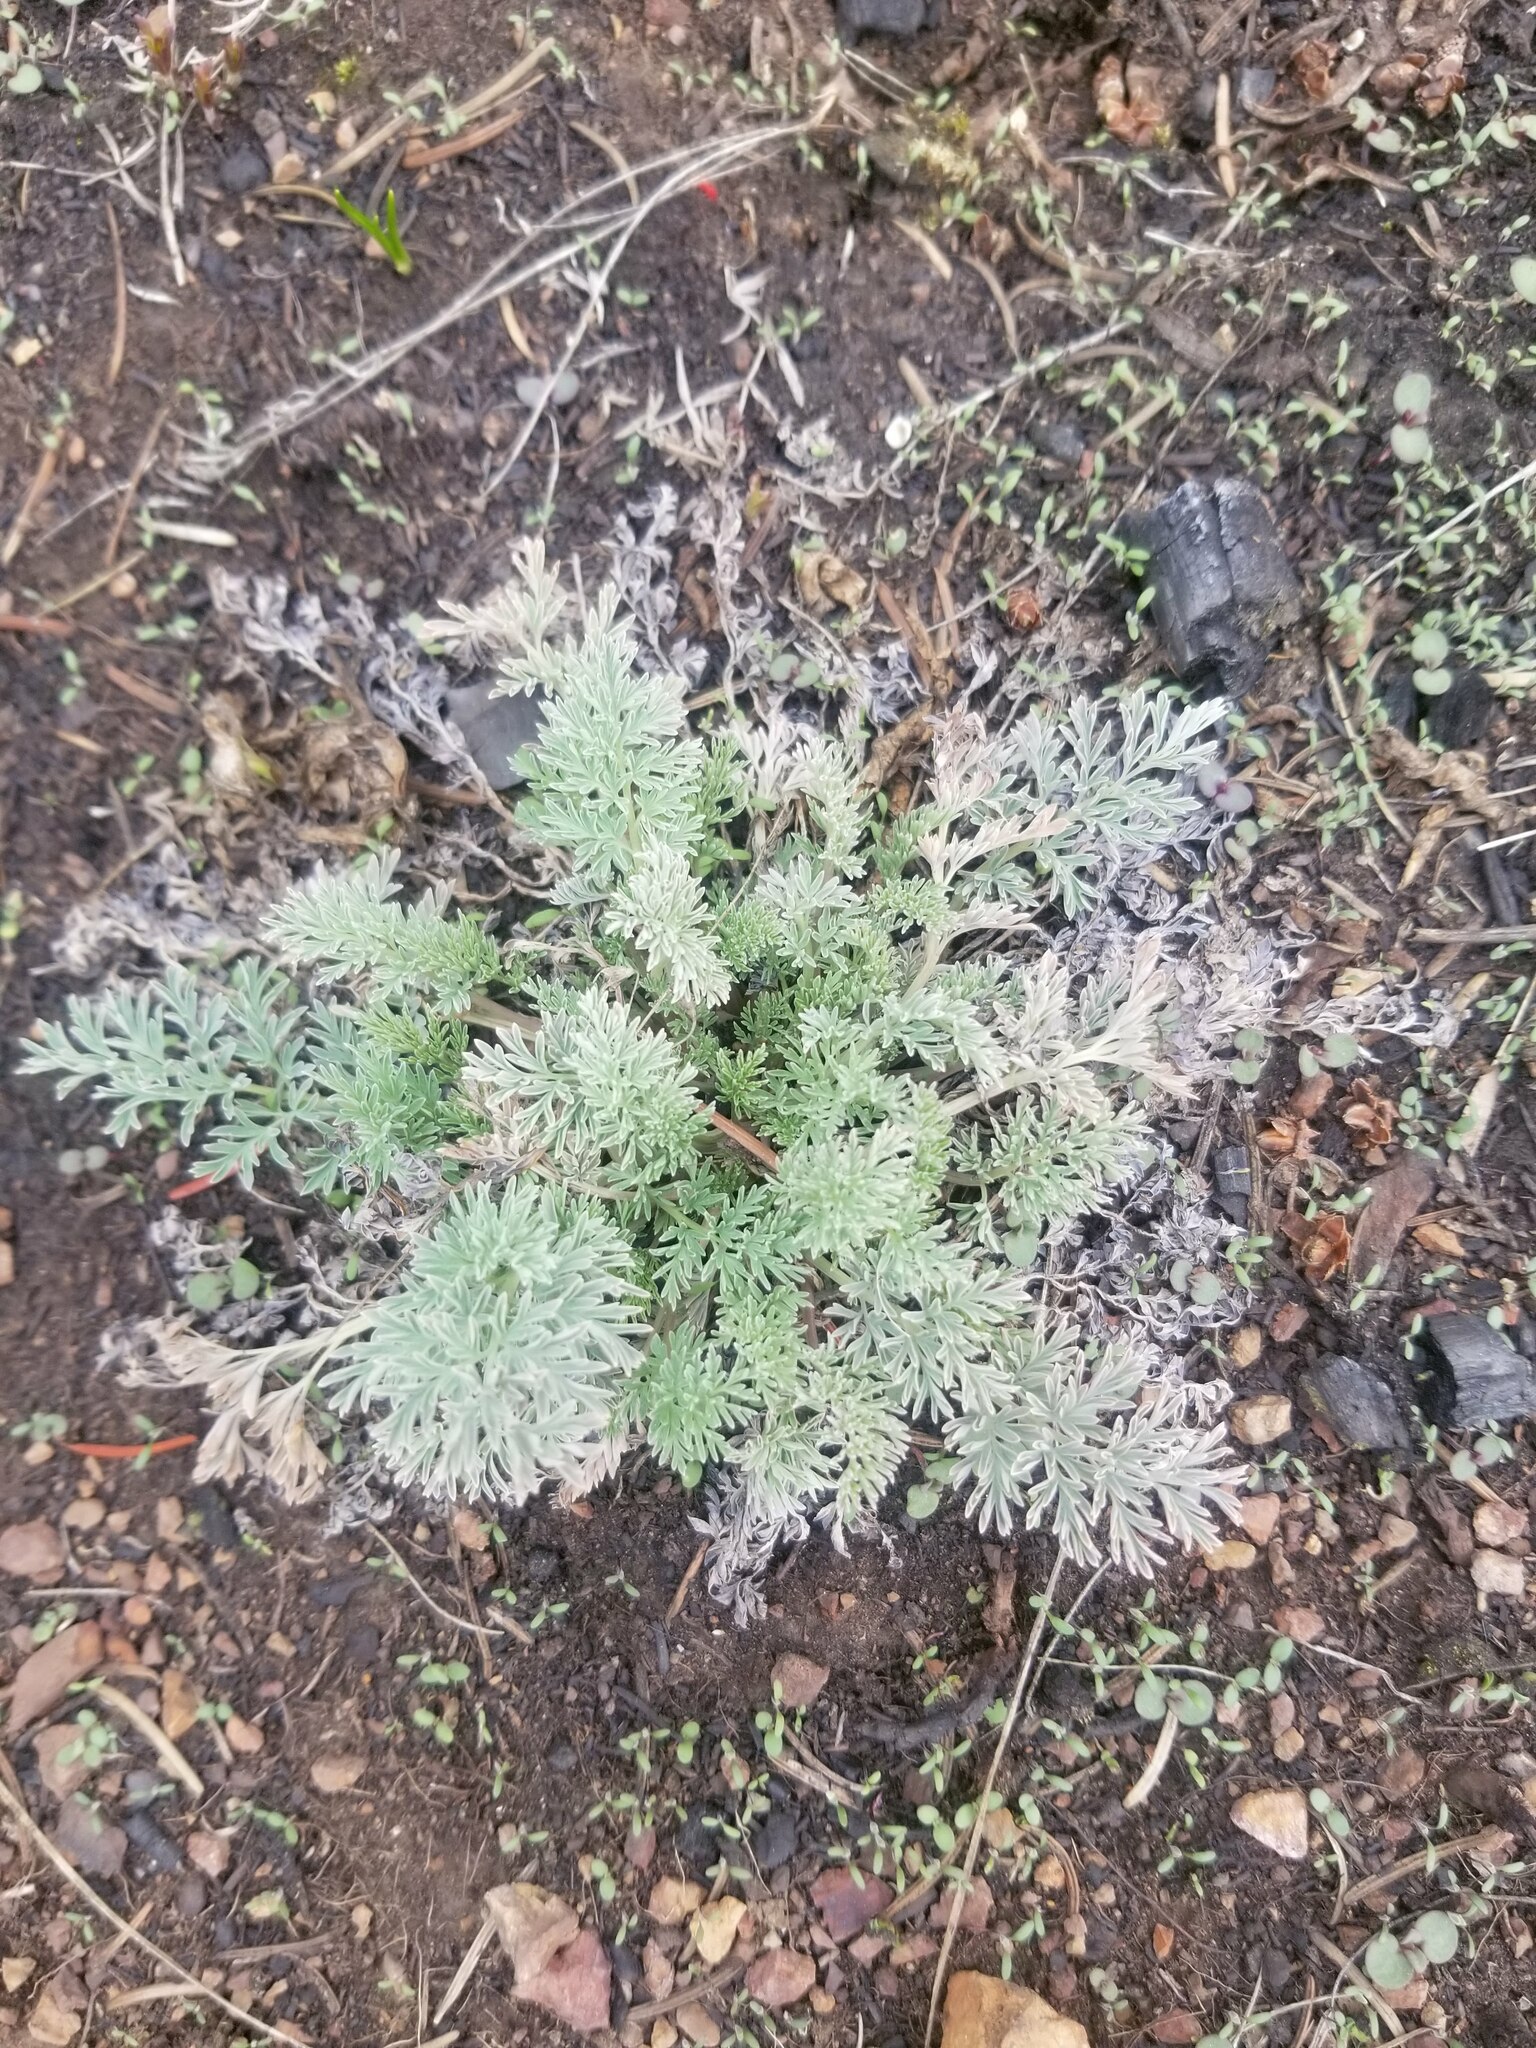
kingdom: Plantae
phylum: Tracheophyta
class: Magnoliopsida
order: Ranunculales
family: Papaveraceae
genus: Corydalis
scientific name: Corydalis aurea
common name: Golden corydalis
